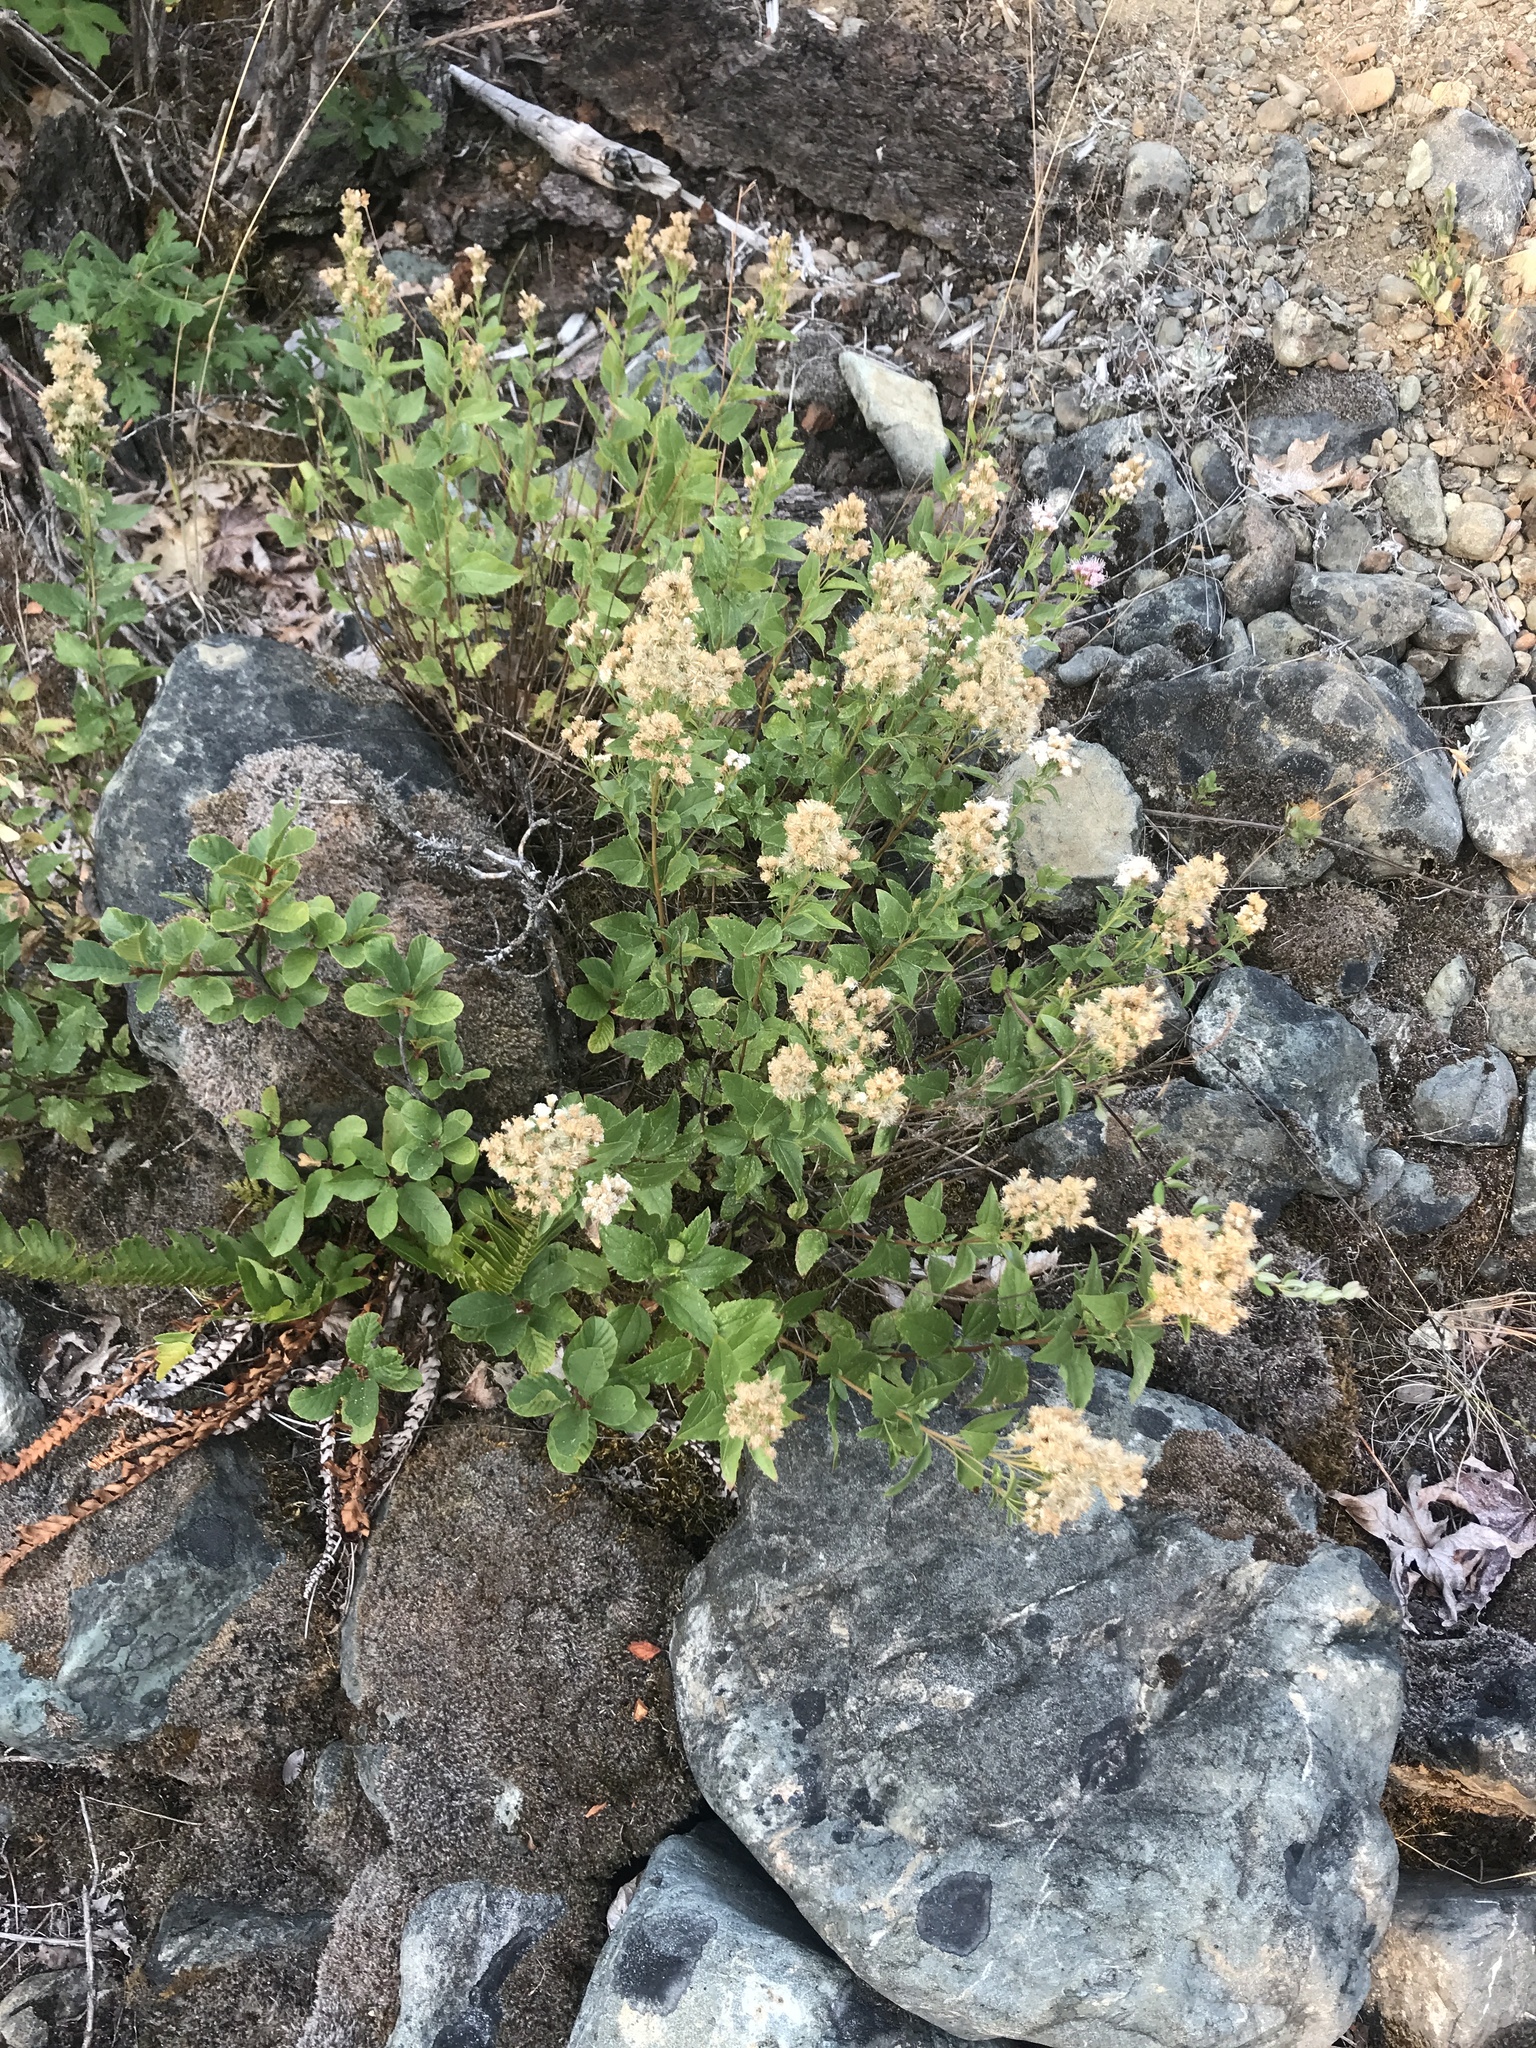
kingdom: Plantae
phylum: Tracheophyta
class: Magnoliopsida
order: Asterales
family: Asteraceae
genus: Ageratina
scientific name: Ageratina occidentalis
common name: Western snakeroot
